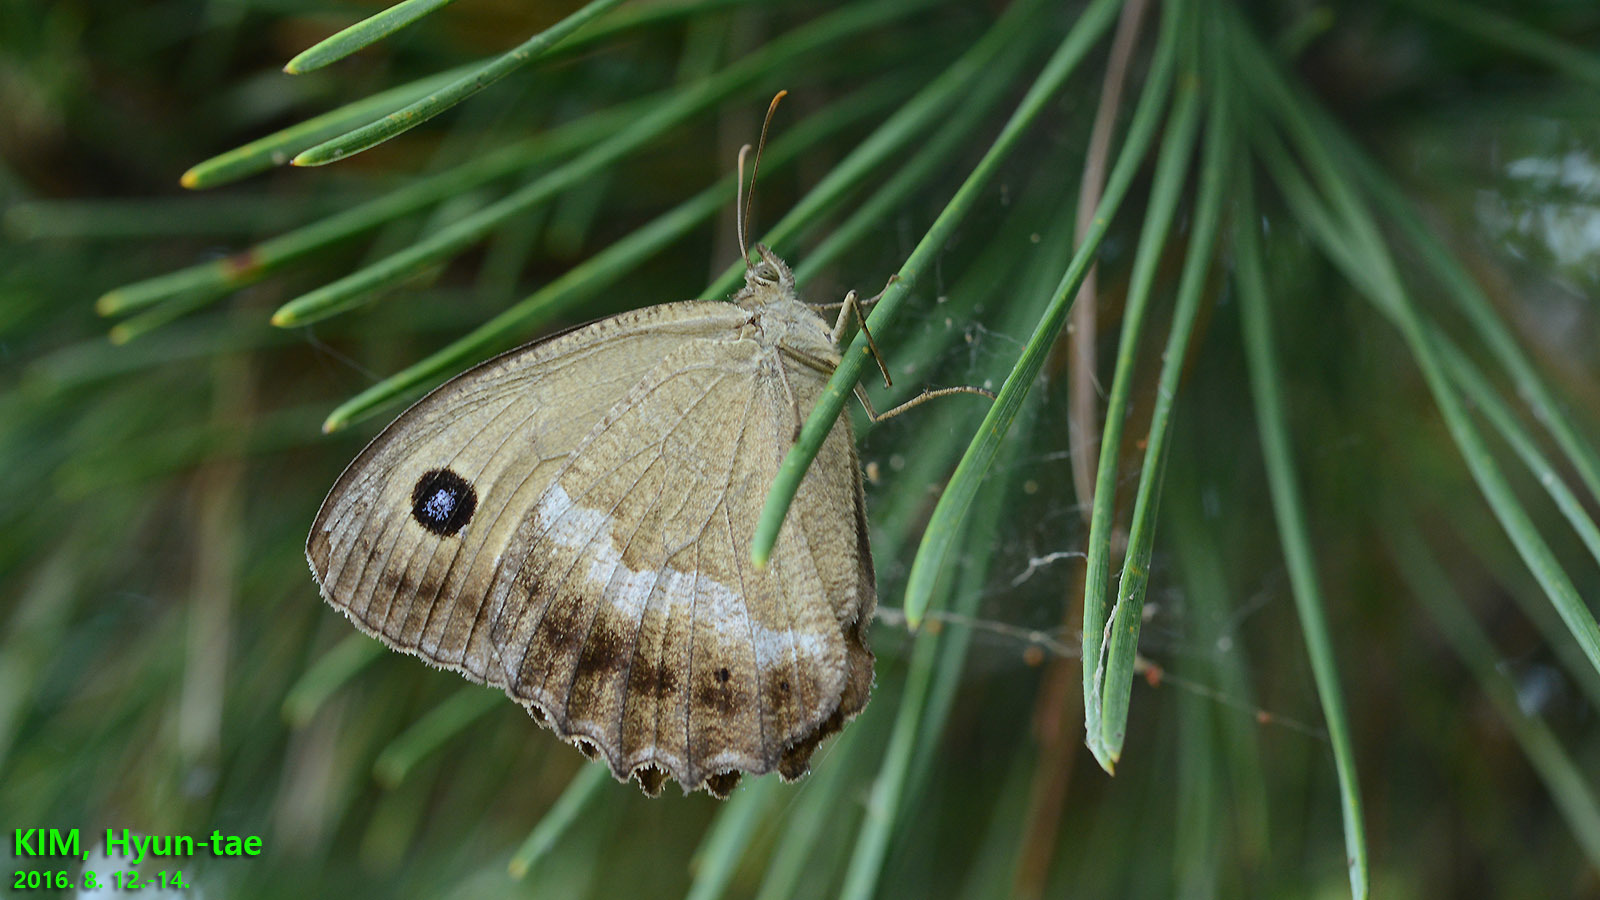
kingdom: Animalia
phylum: Arthropoda
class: Insecta
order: Lepidoptera
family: Nymphalidae
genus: Minois
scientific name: Minois dryas
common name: Dryad
